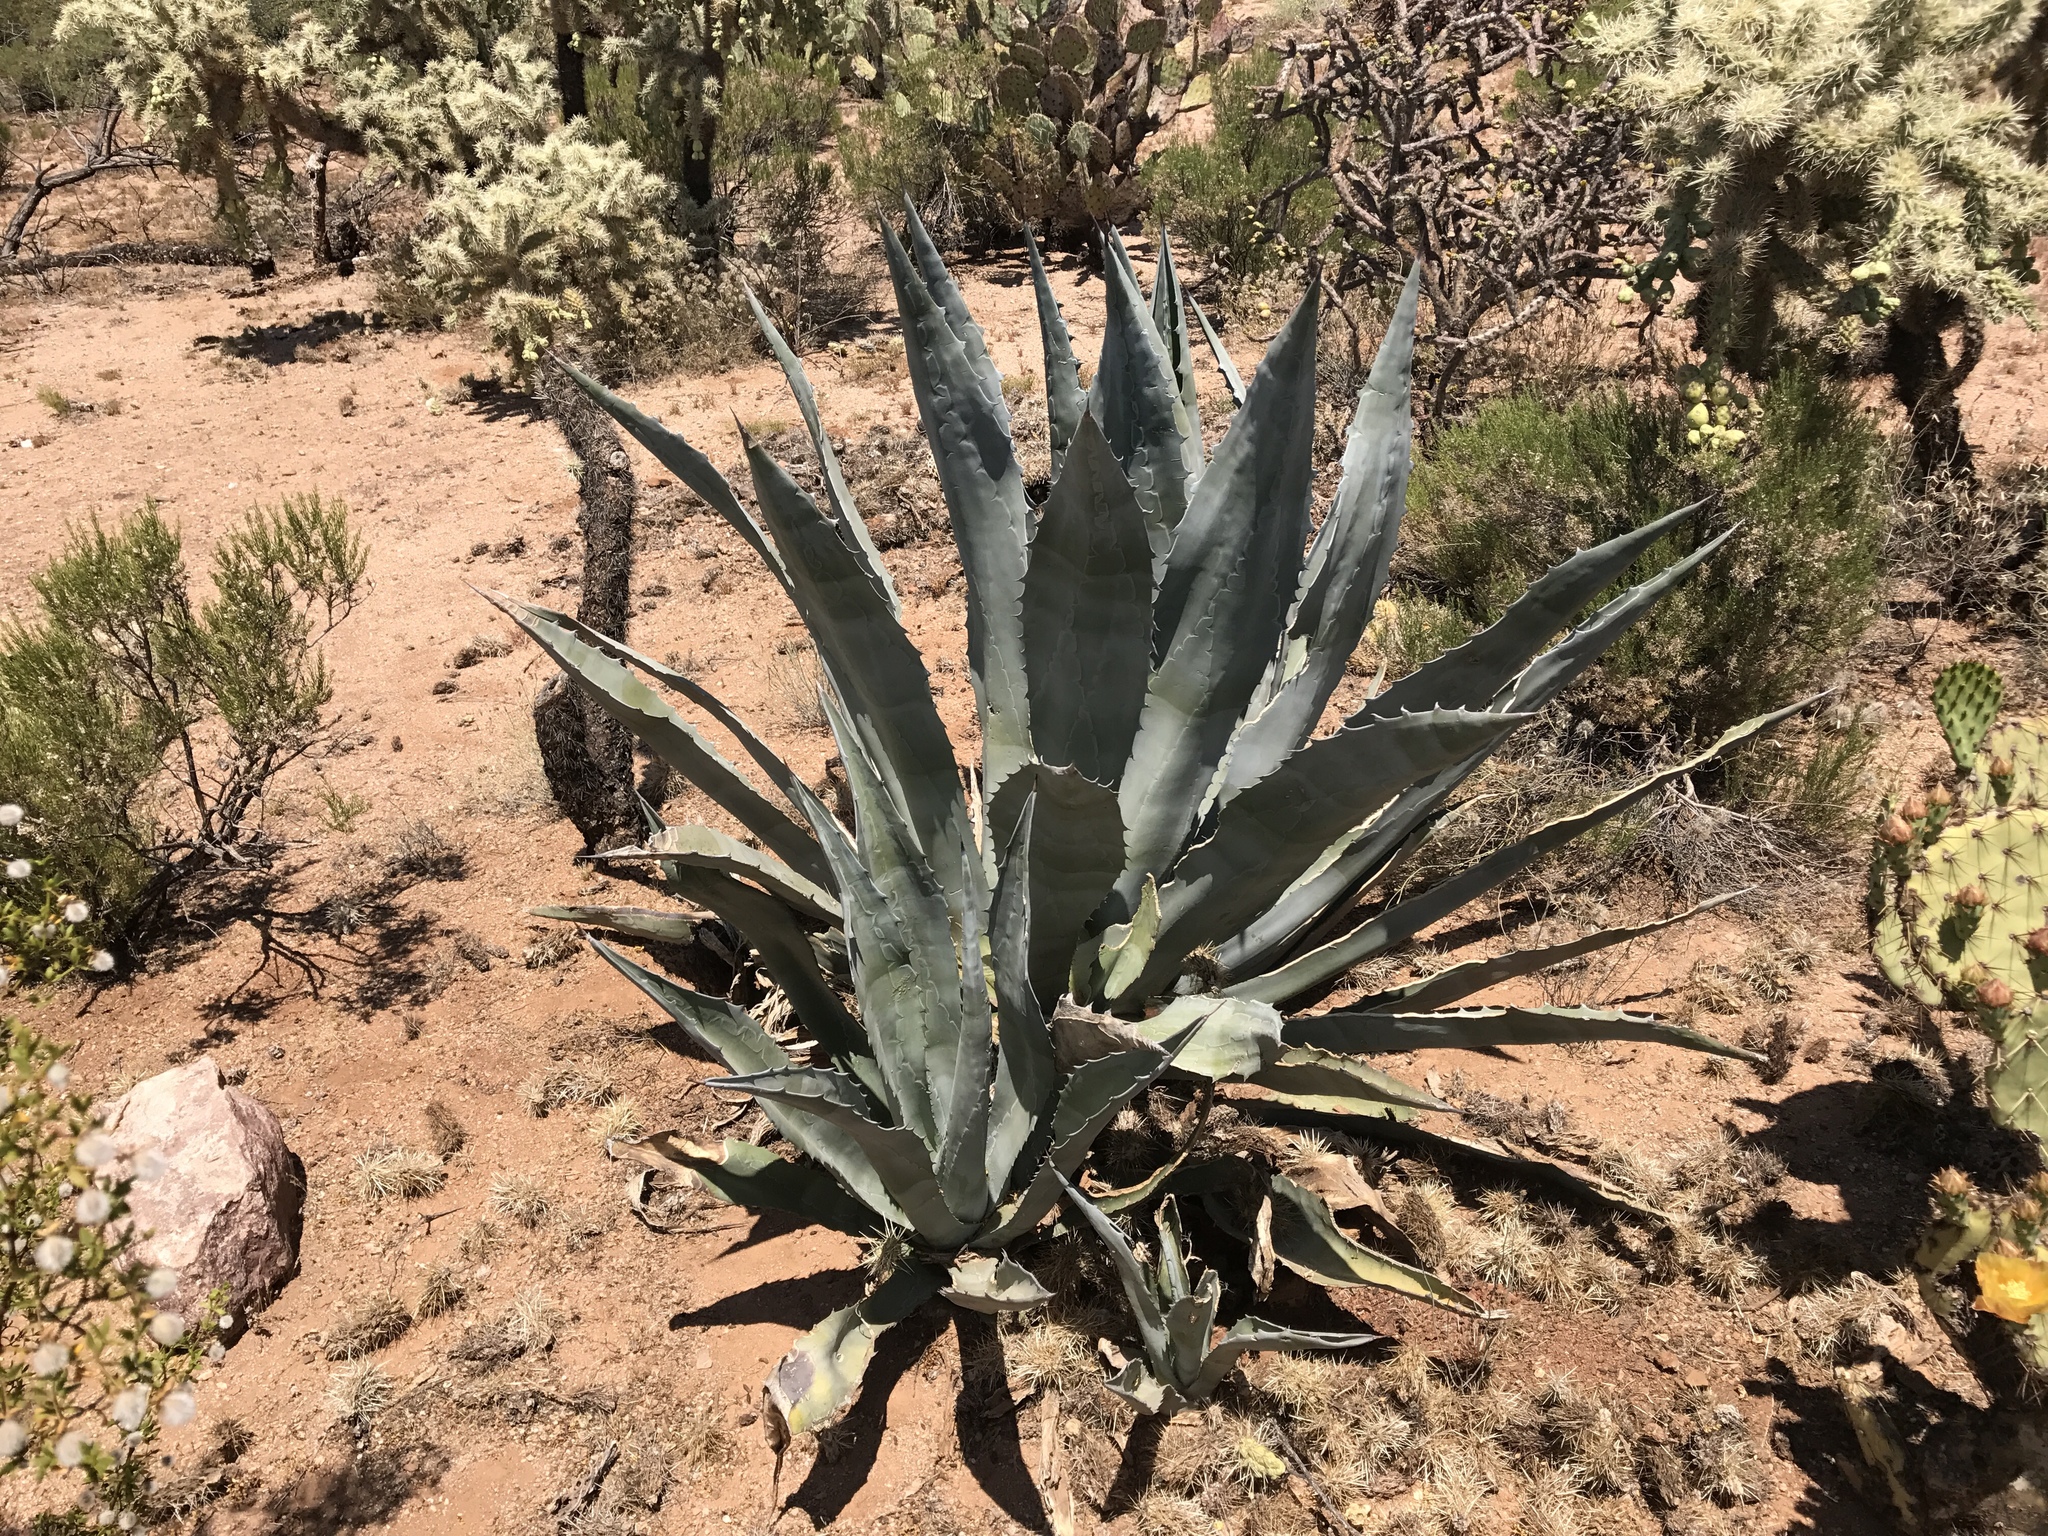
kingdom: Plantae
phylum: Tracheophyta
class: Liliopsida
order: Asparagales
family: Asparagaceae
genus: Agave
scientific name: Agave americana
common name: Centuryplant
